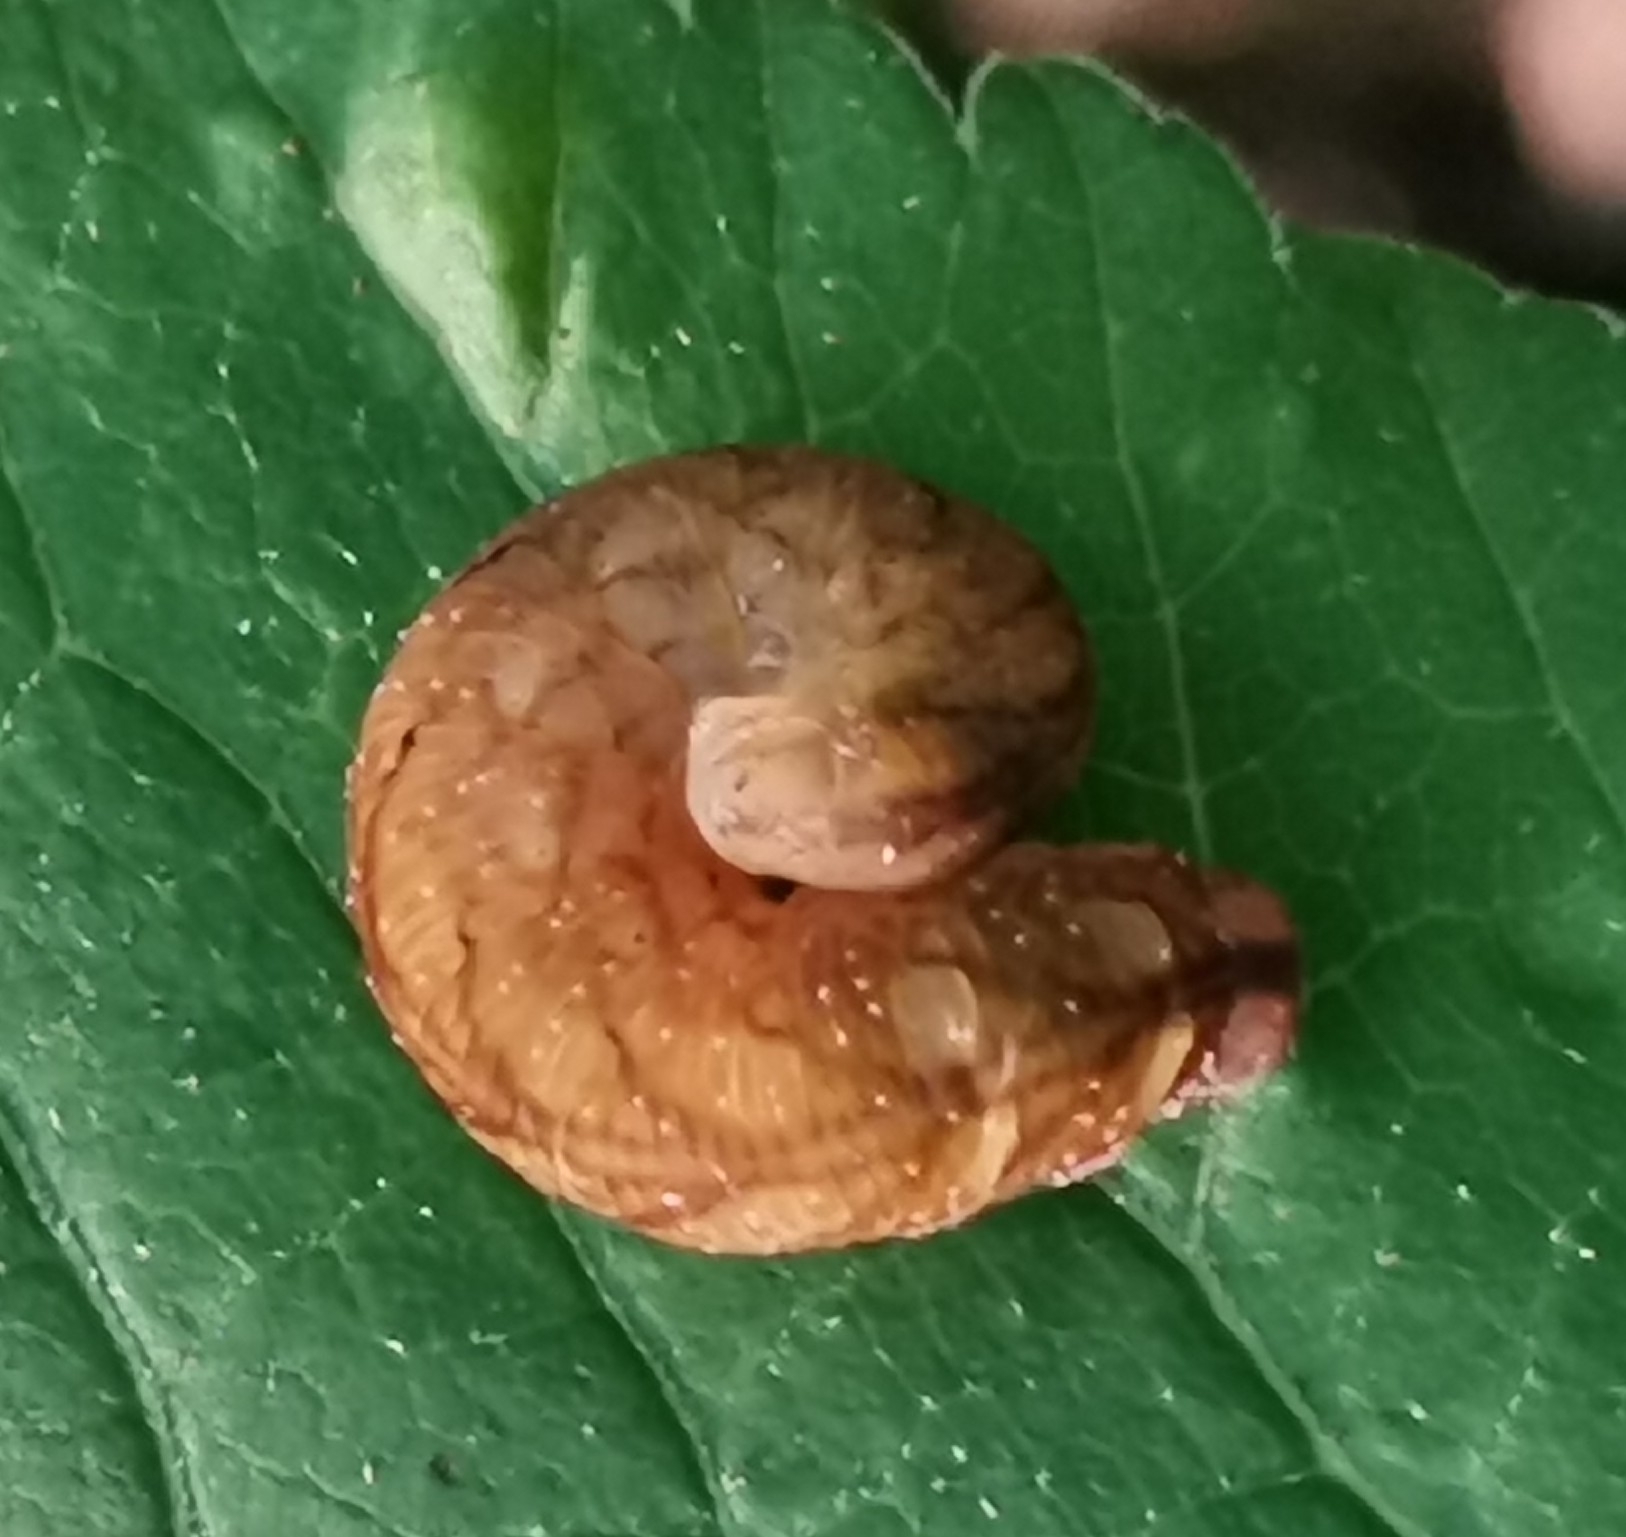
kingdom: Animalia
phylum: Arthropoda
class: Insecta
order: Hymenoptera
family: Tenthredinidae
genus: Tenthredo
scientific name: Tenthredo campestris
